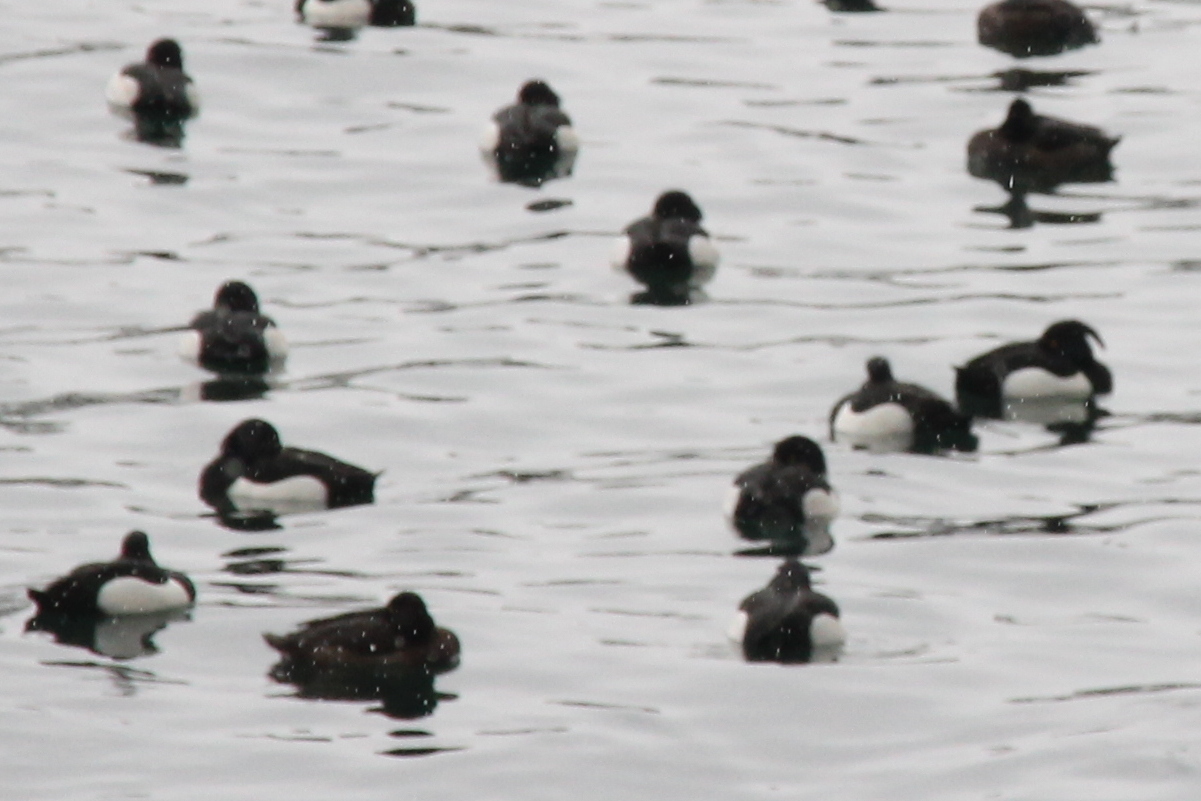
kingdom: Animalia
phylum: Chordata
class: Aves
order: Anseriformes
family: Anatidae
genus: Aythya
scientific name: Aythya fuligula
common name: Tufted duck
